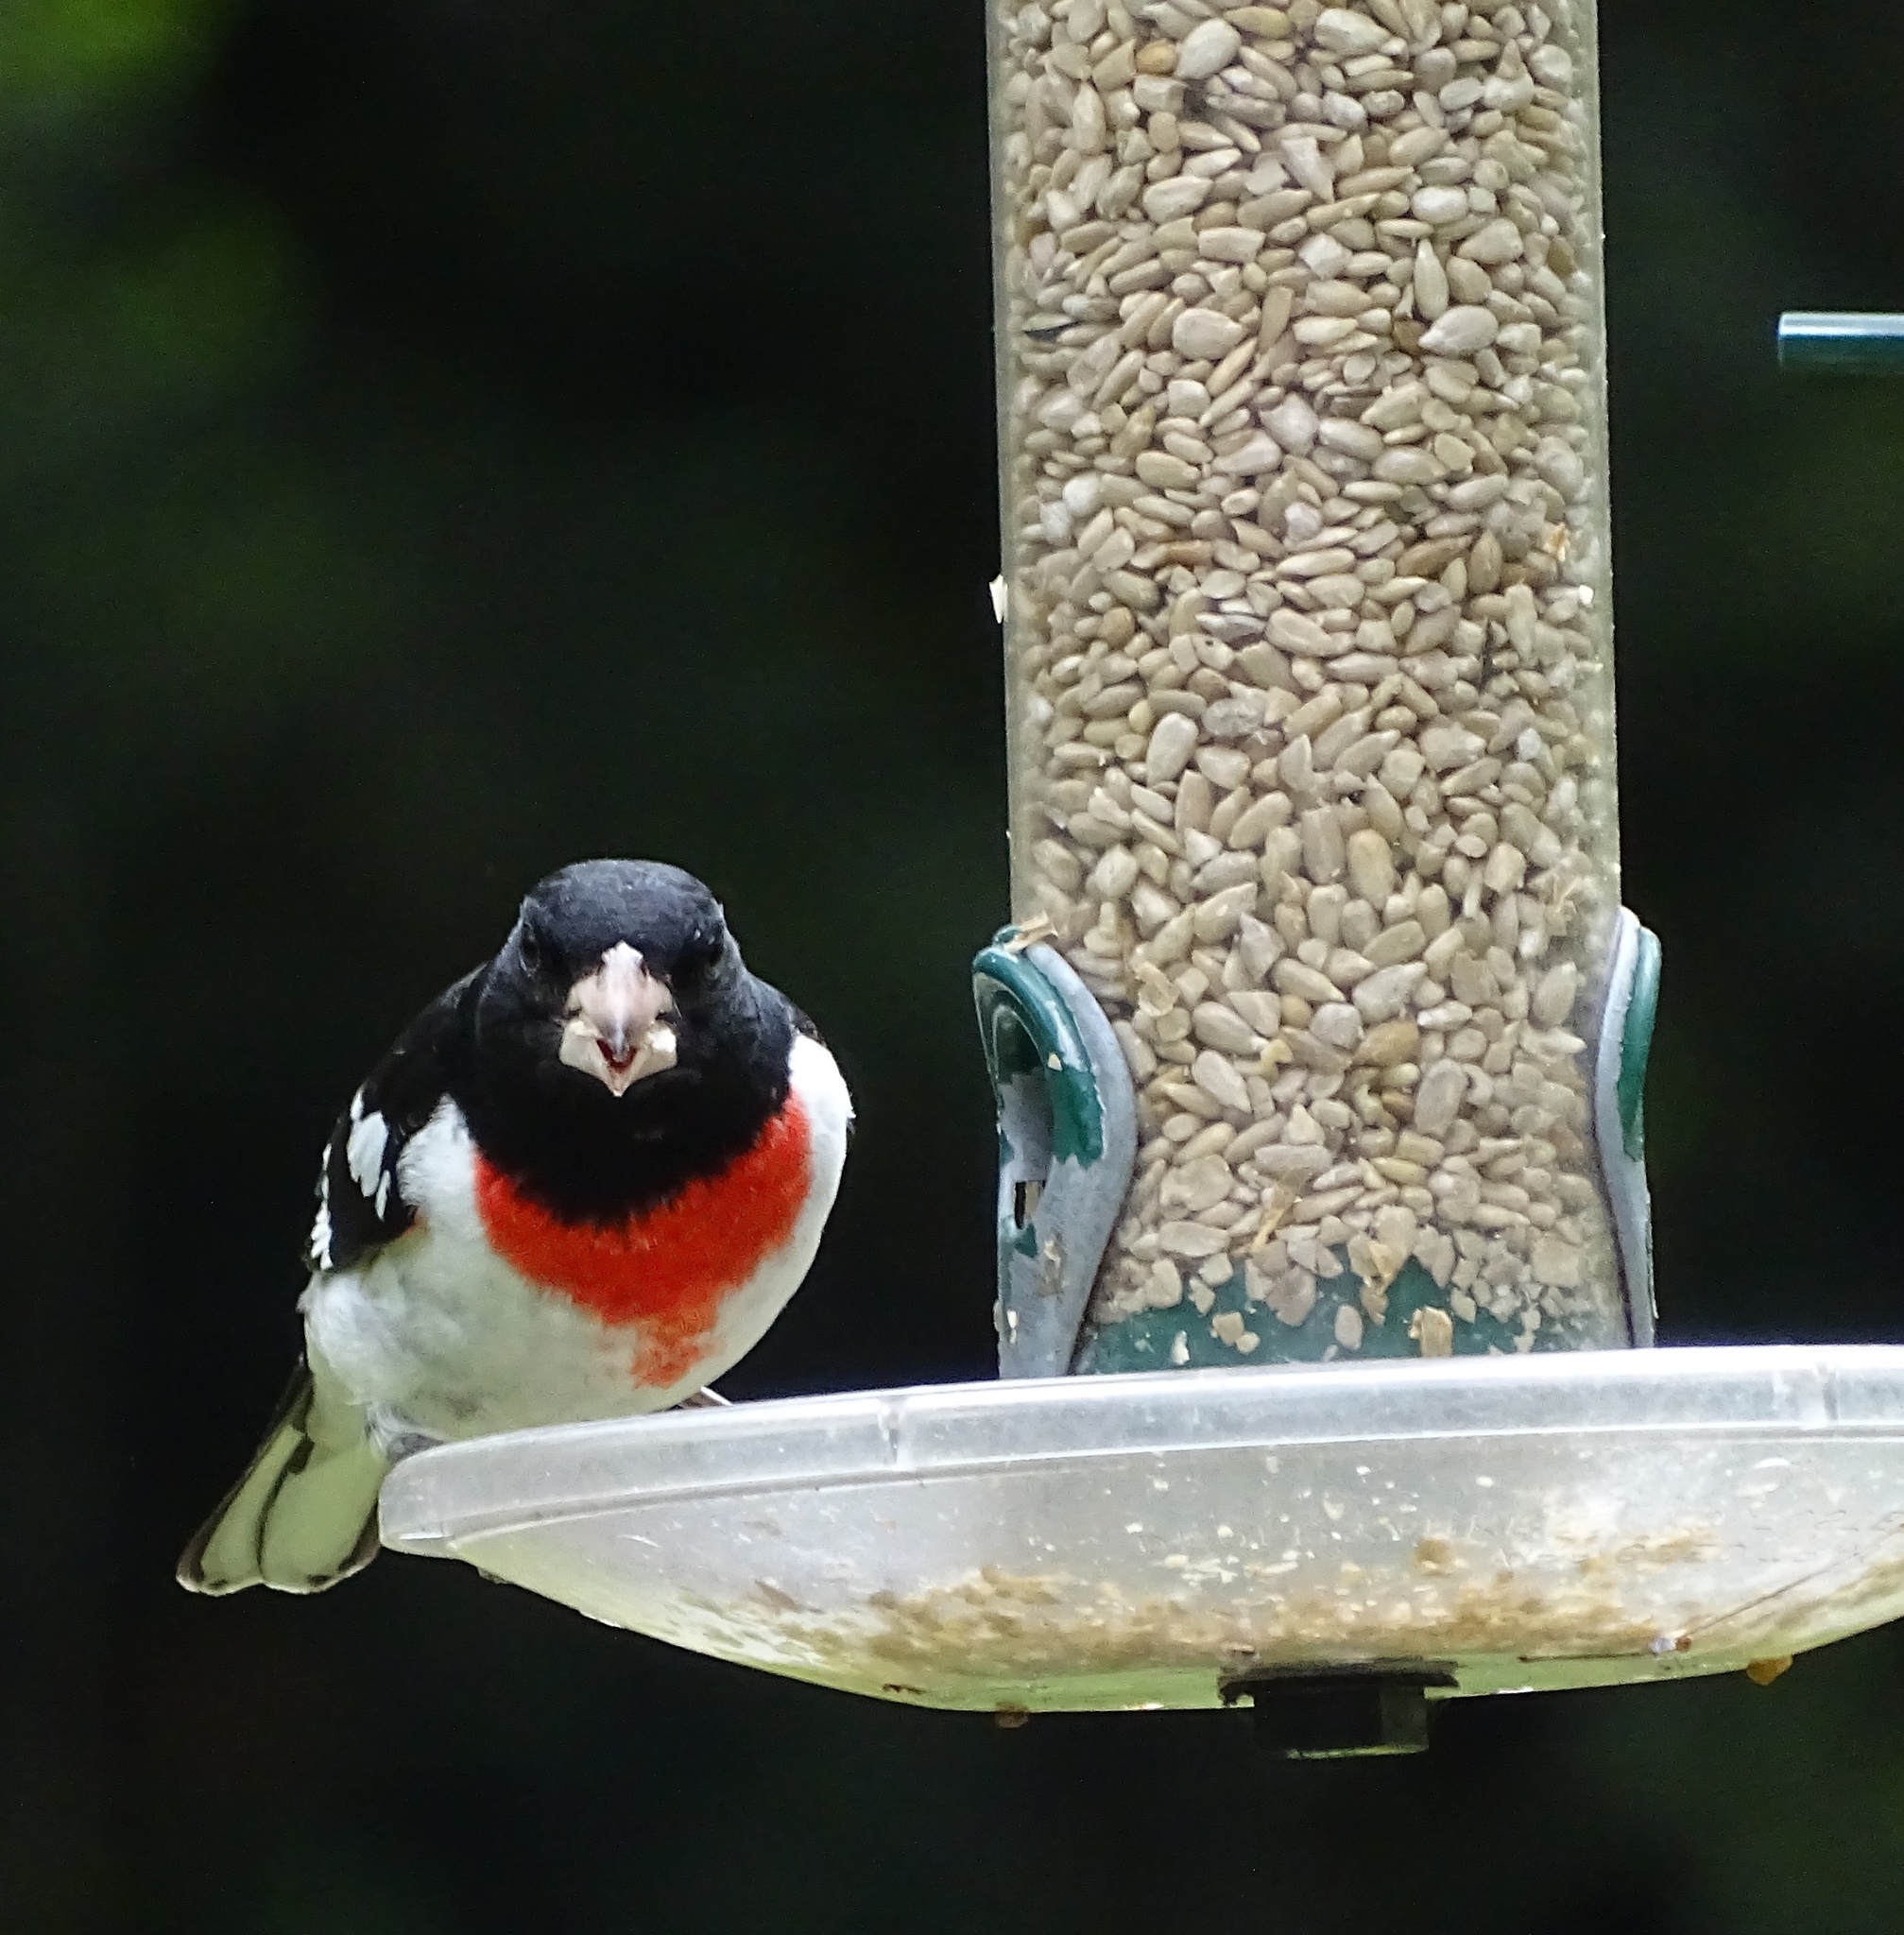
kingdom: Animalia
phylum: Chordata
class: Aves
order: Passeriformes
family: Cardinalidae
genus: Pheucticus
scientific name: Pheucticus ludovicianus
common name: Rose-breasted grosbeak
